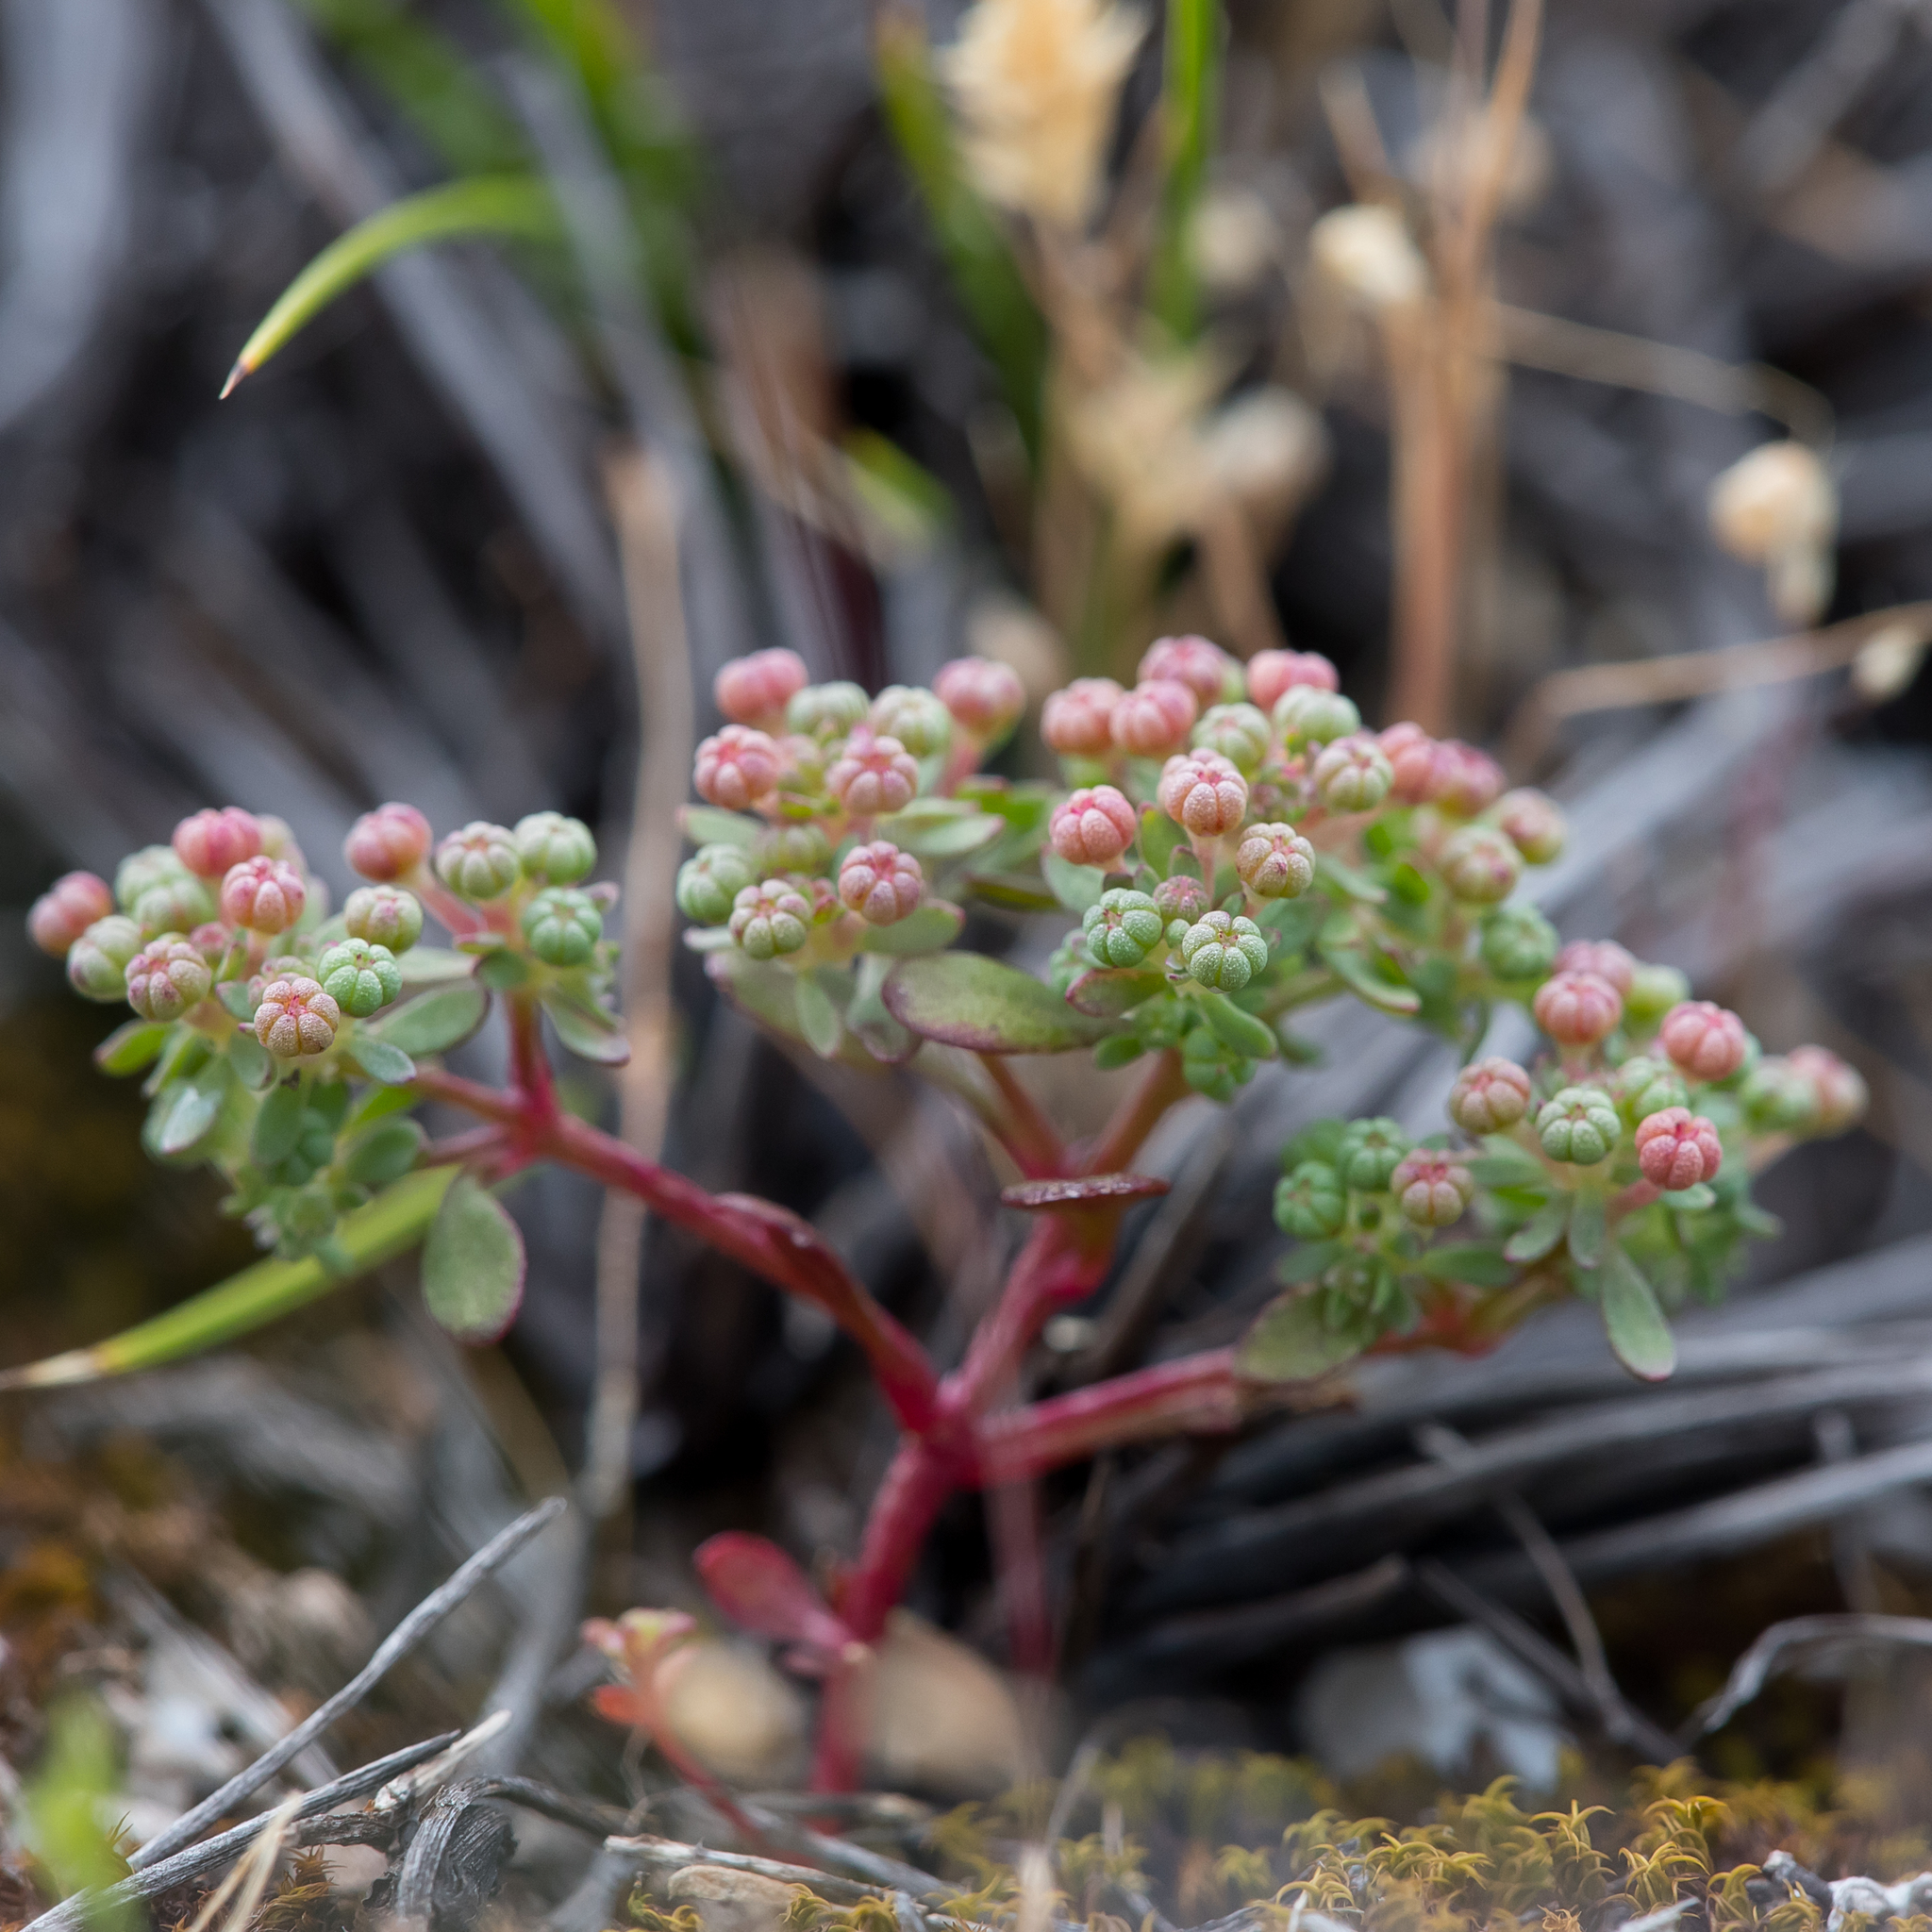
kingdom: Plantae
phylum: Tracheophyta
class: Magnoliopsida
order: Malpighiales
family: Phyllanthaceae
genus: Poranthera
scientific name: Poranthera triandra
